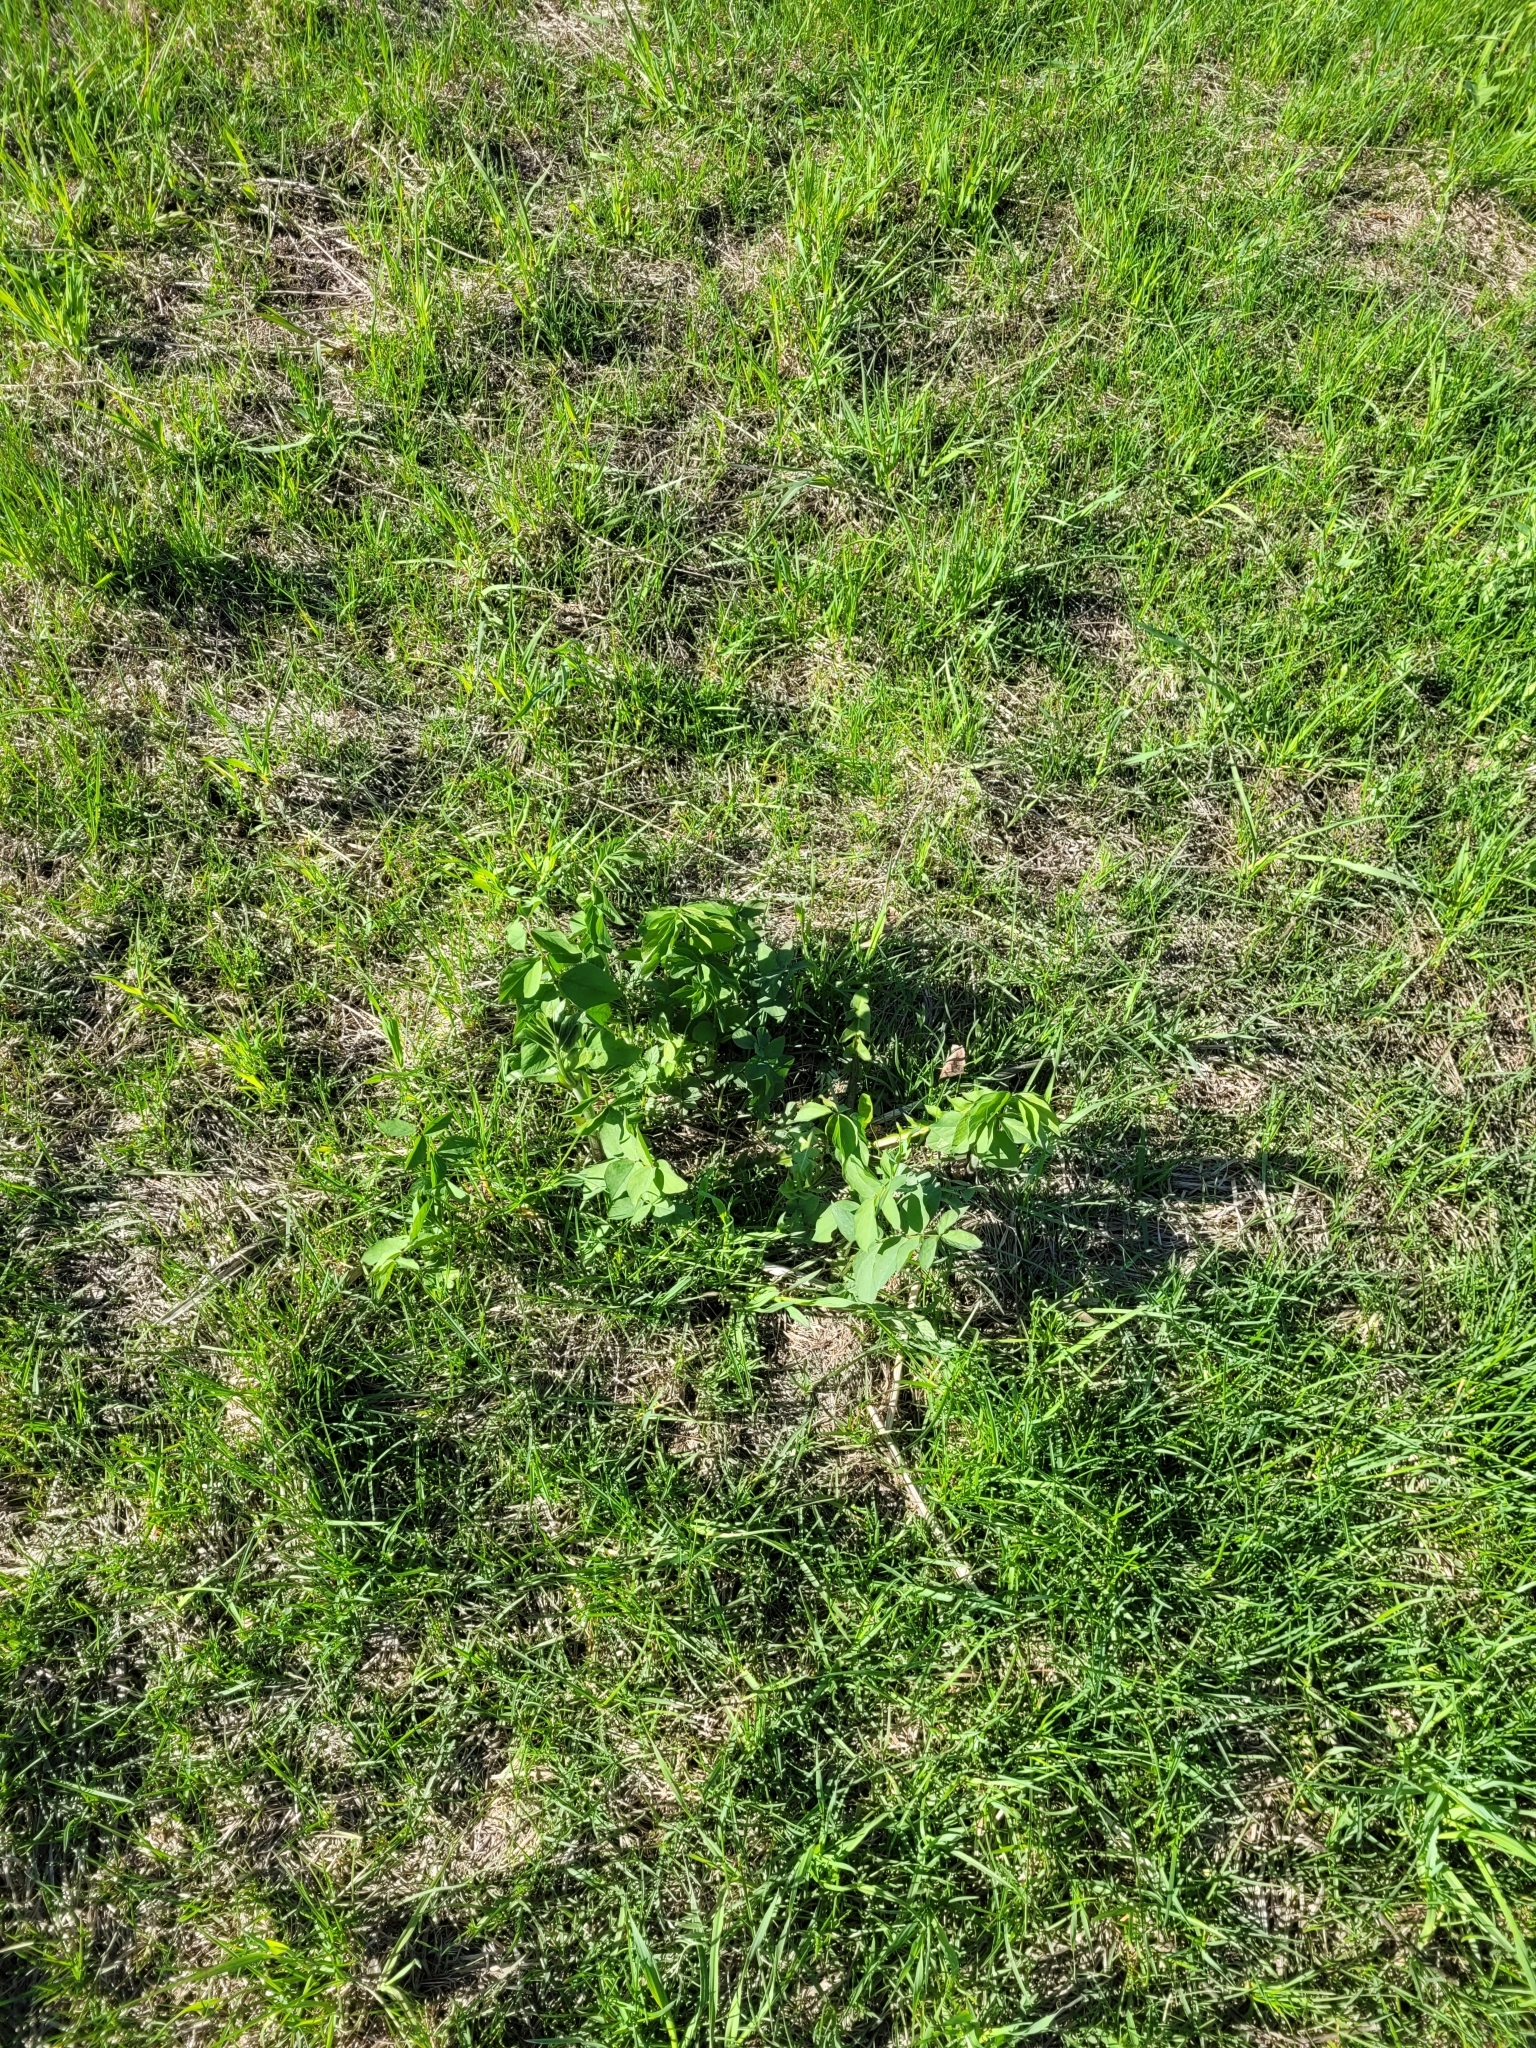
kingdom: Plantae
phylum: Tracheophyta
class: Magnoliopsida
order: Fabales
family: Fabaceae
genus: Galega
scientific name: Galega orientalis
